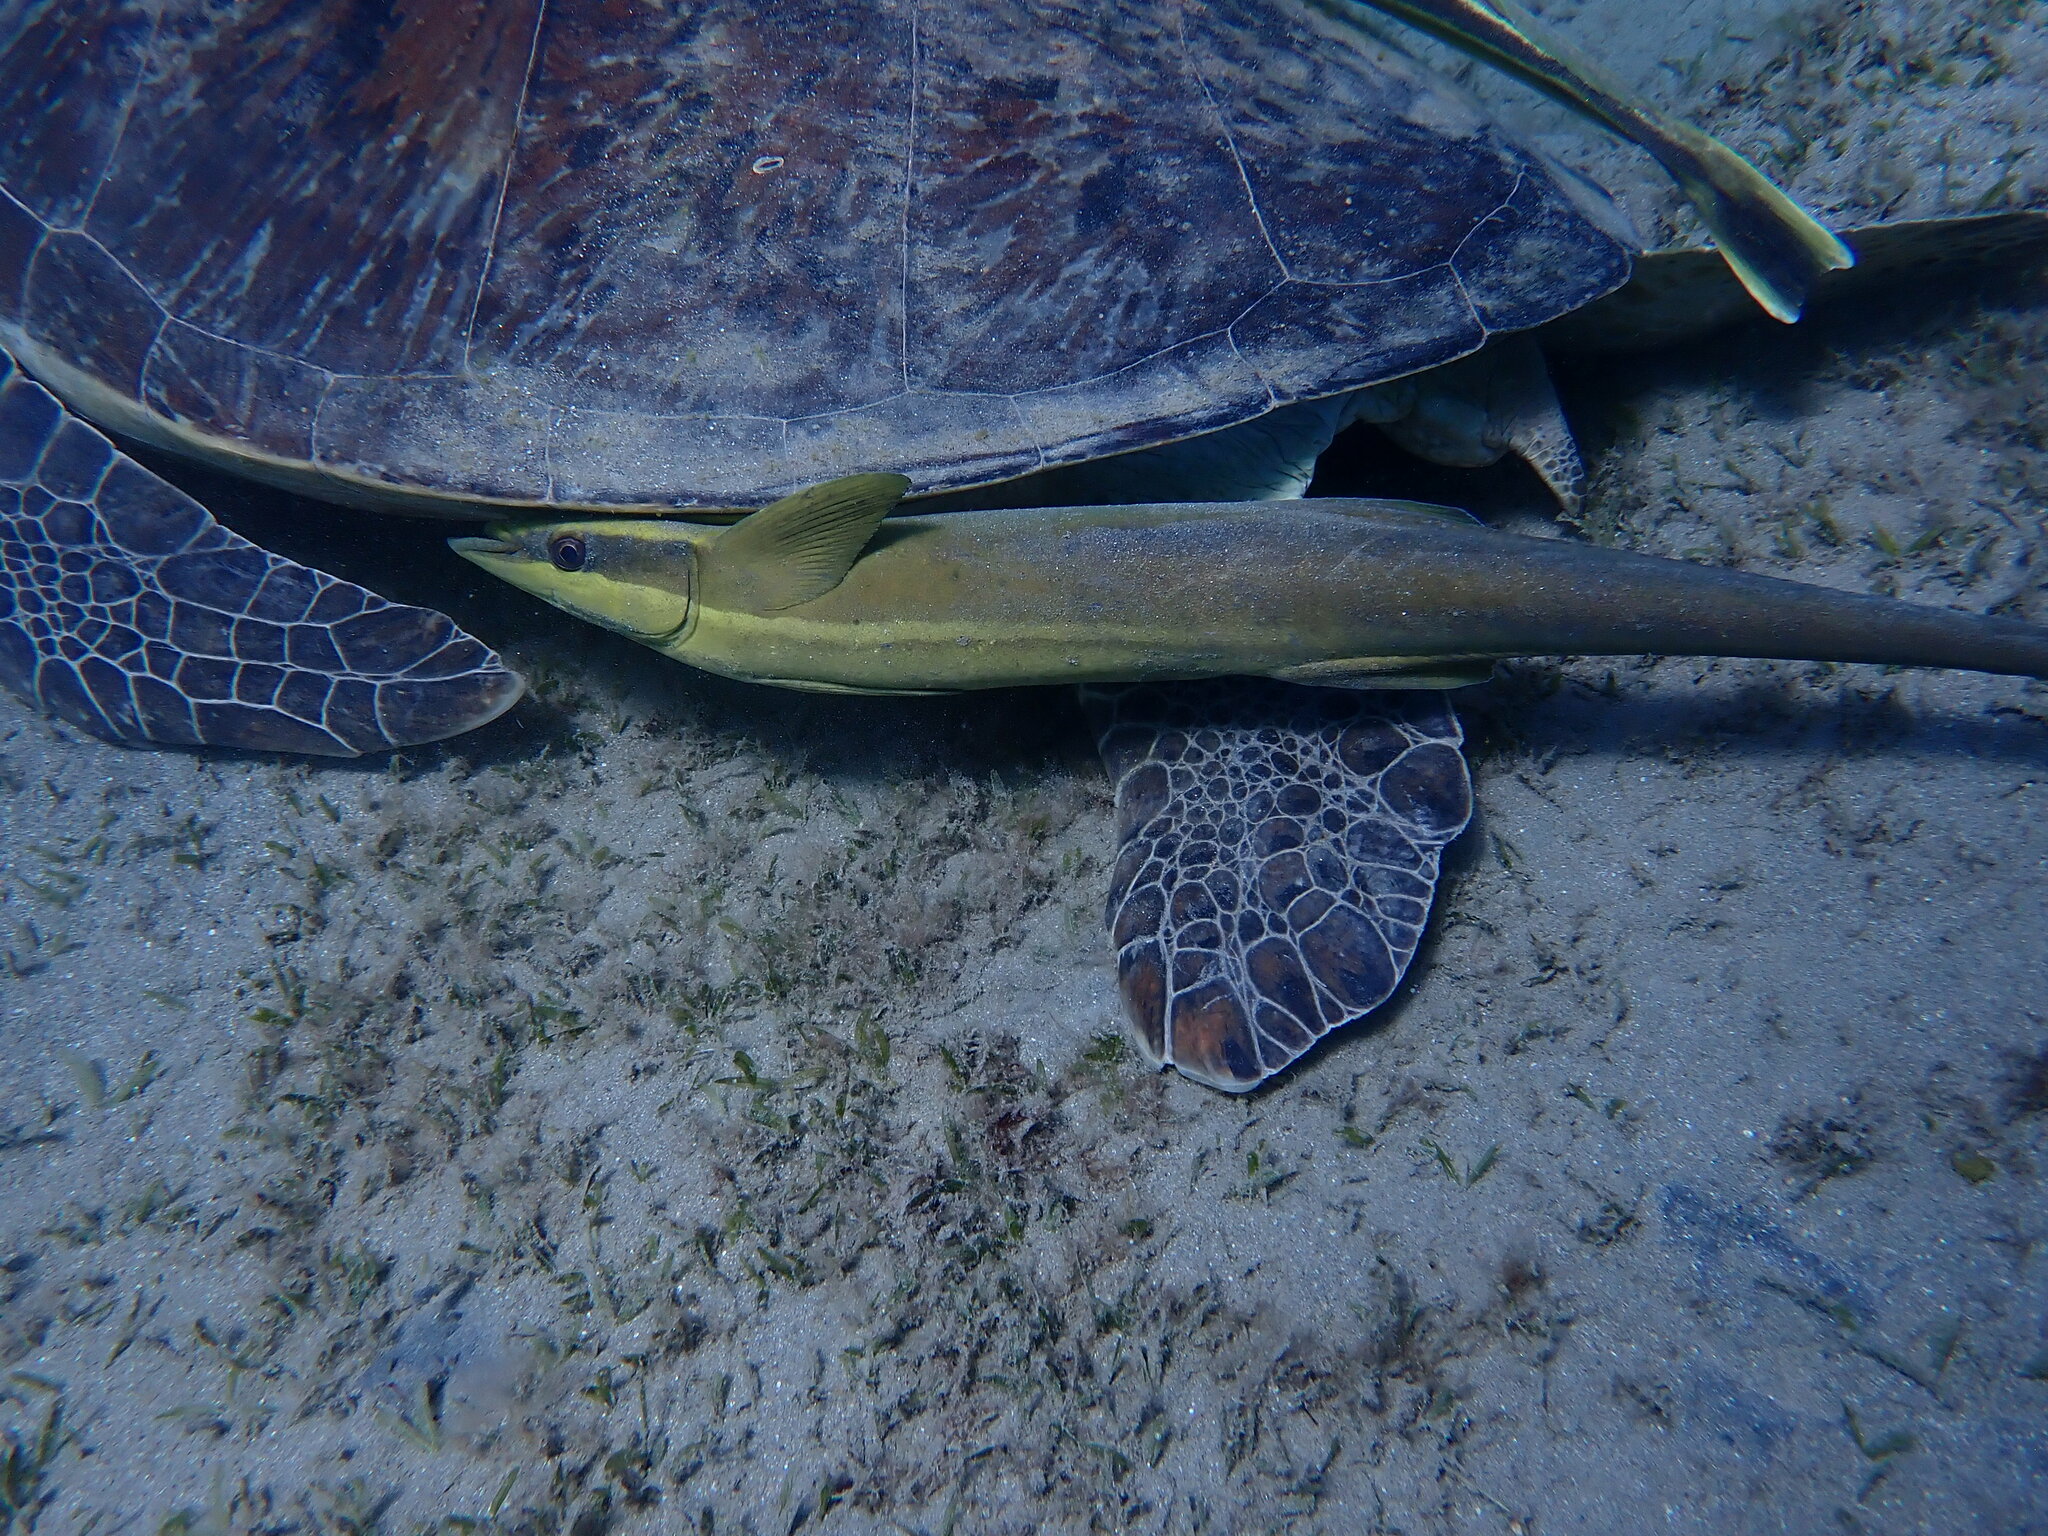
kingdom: Animalia
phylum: Chordata
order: Perciformes
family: Echeneidae
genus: Echeneis
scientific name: Echeneis naucrates
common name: Sharksucker
